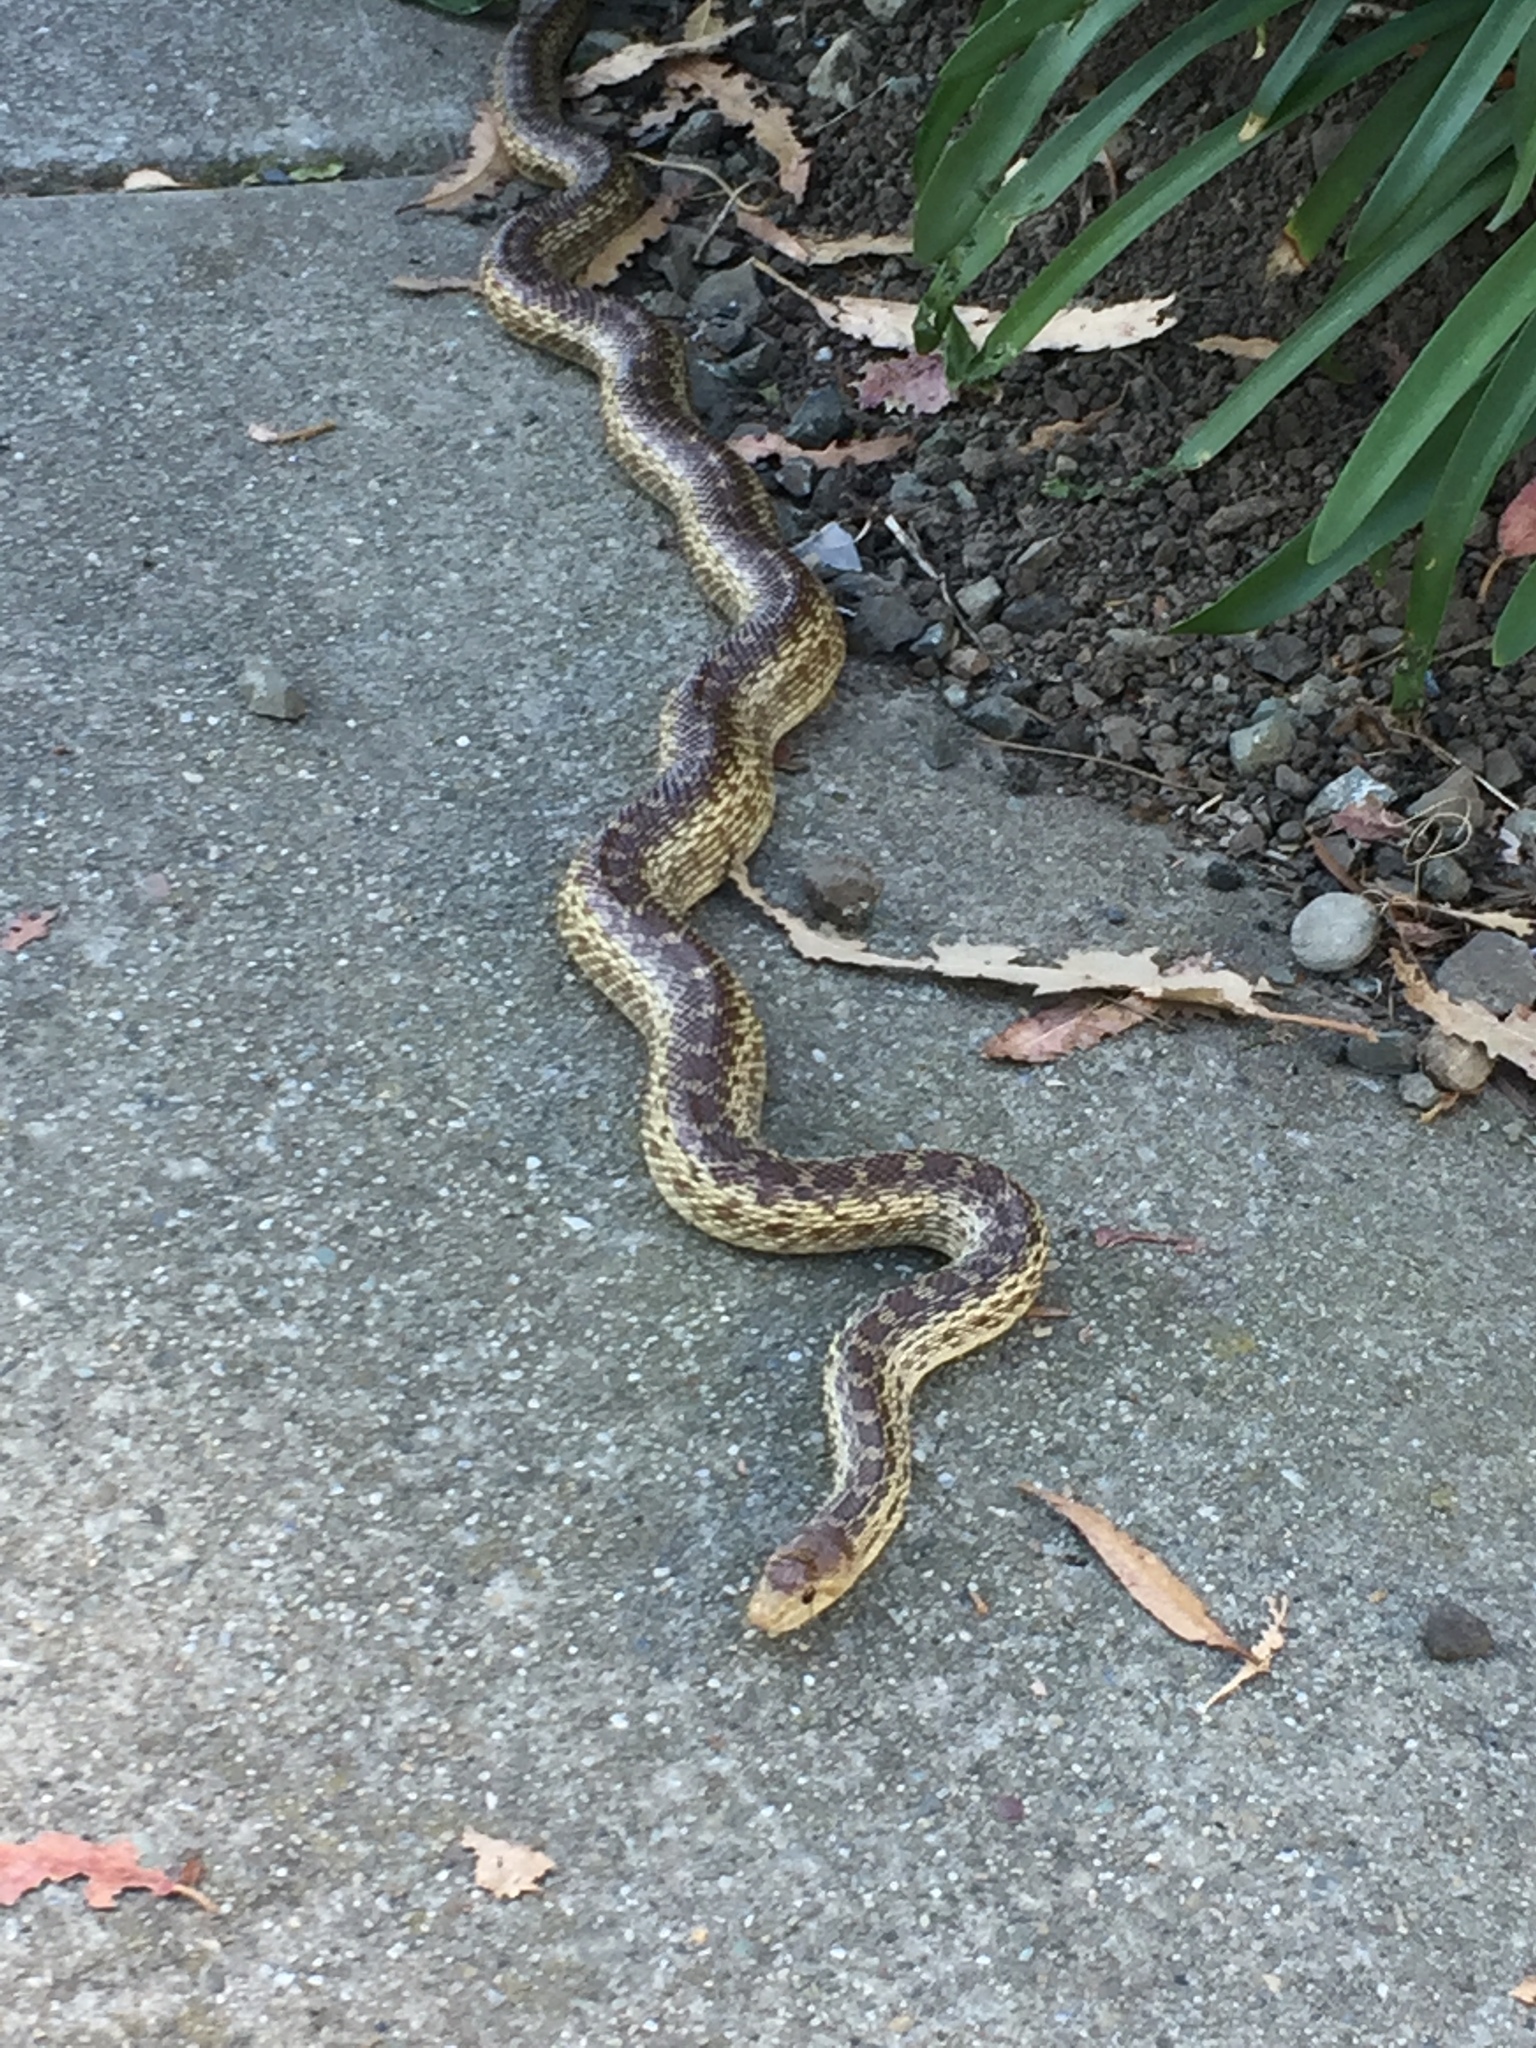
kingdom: Animalia
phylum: Chordata
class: Squamata
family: Colubridae
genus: Pituophis
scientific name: Pituophis catenifer
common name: Gopher snake
